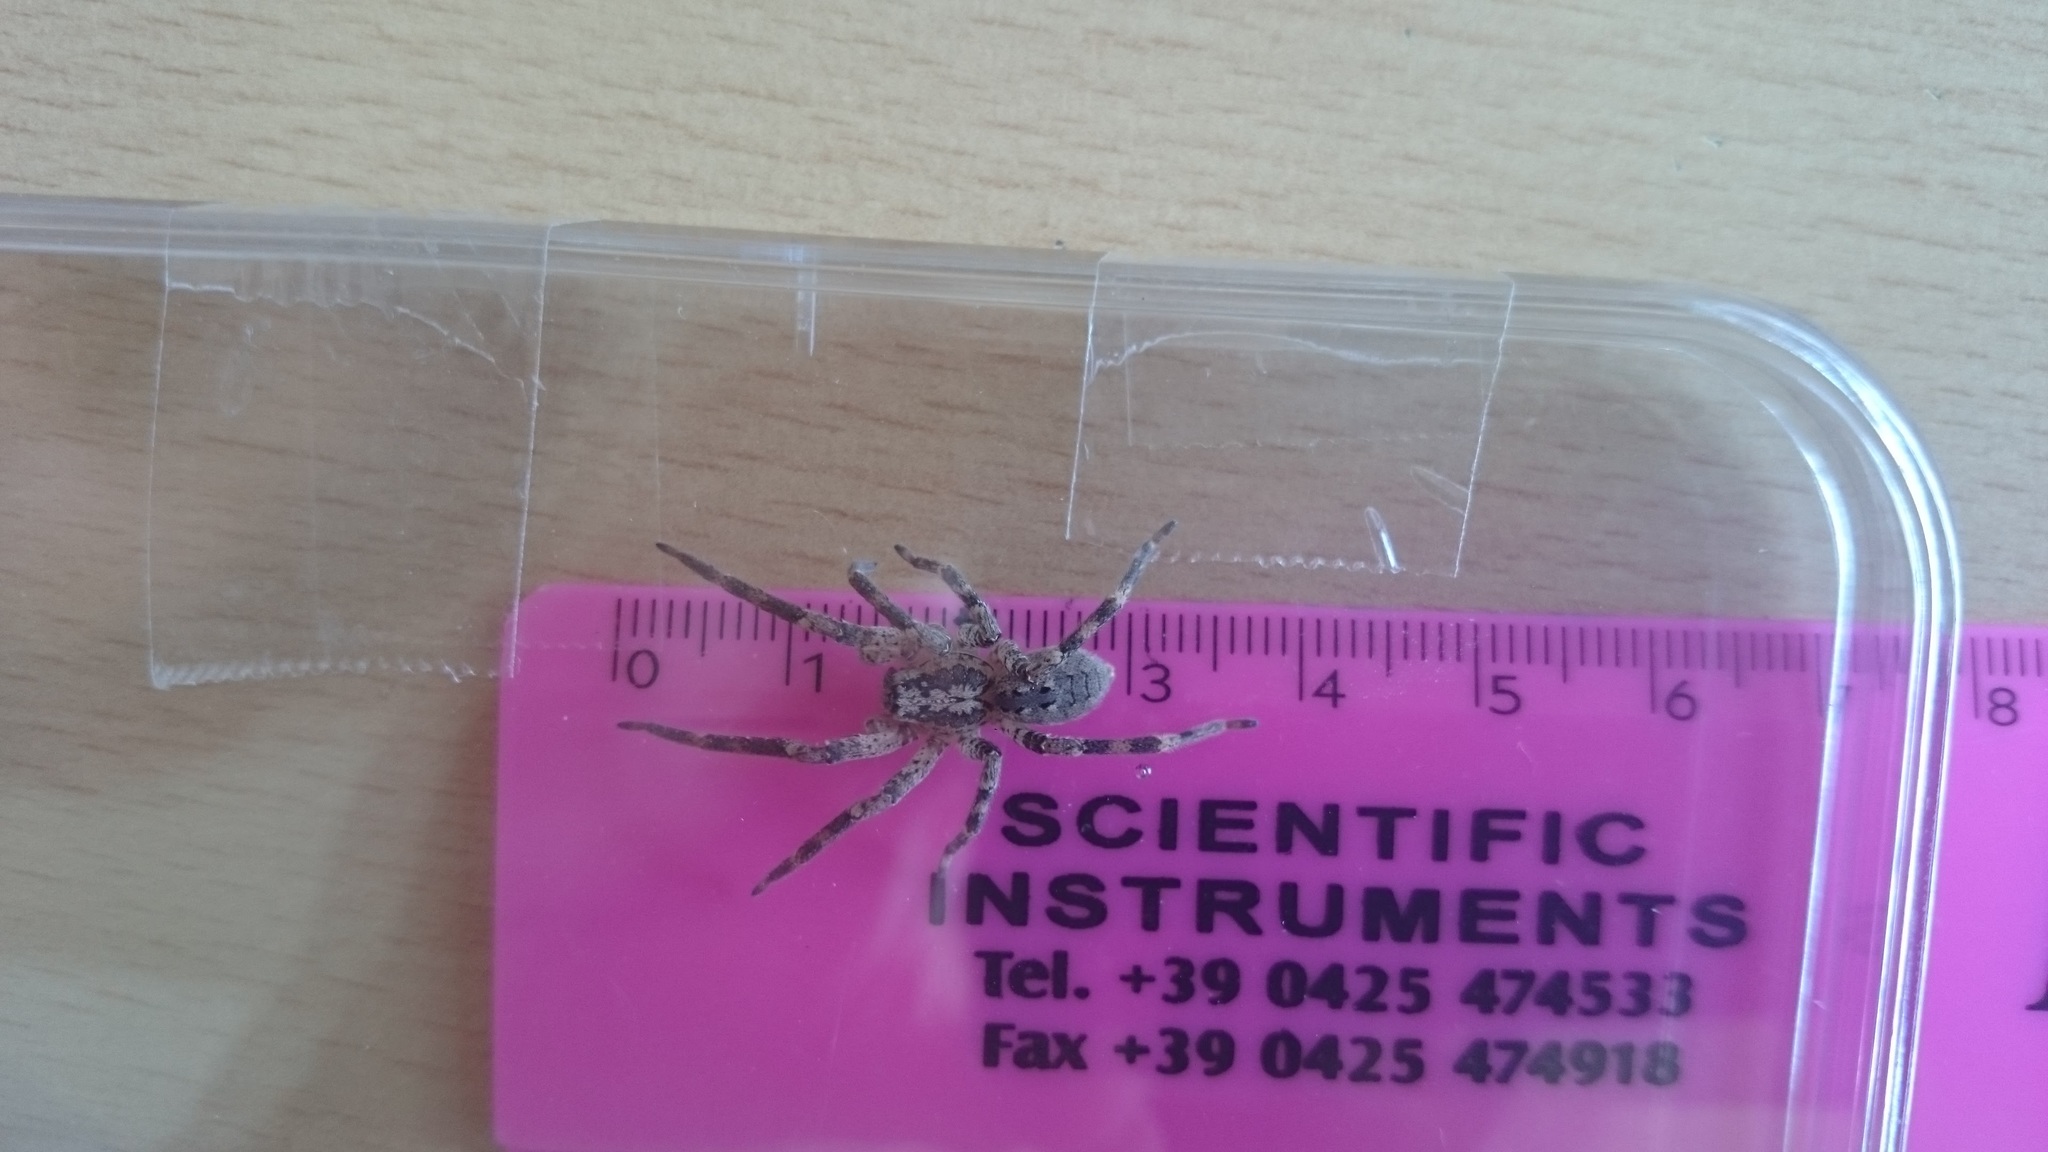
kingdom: Animalia
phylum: Arthropoda
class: Arachnida
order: Araneae
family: Zoropsidae
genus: Zoropsis
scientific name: Zoropsis spinimana
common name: Zoropsid spider
